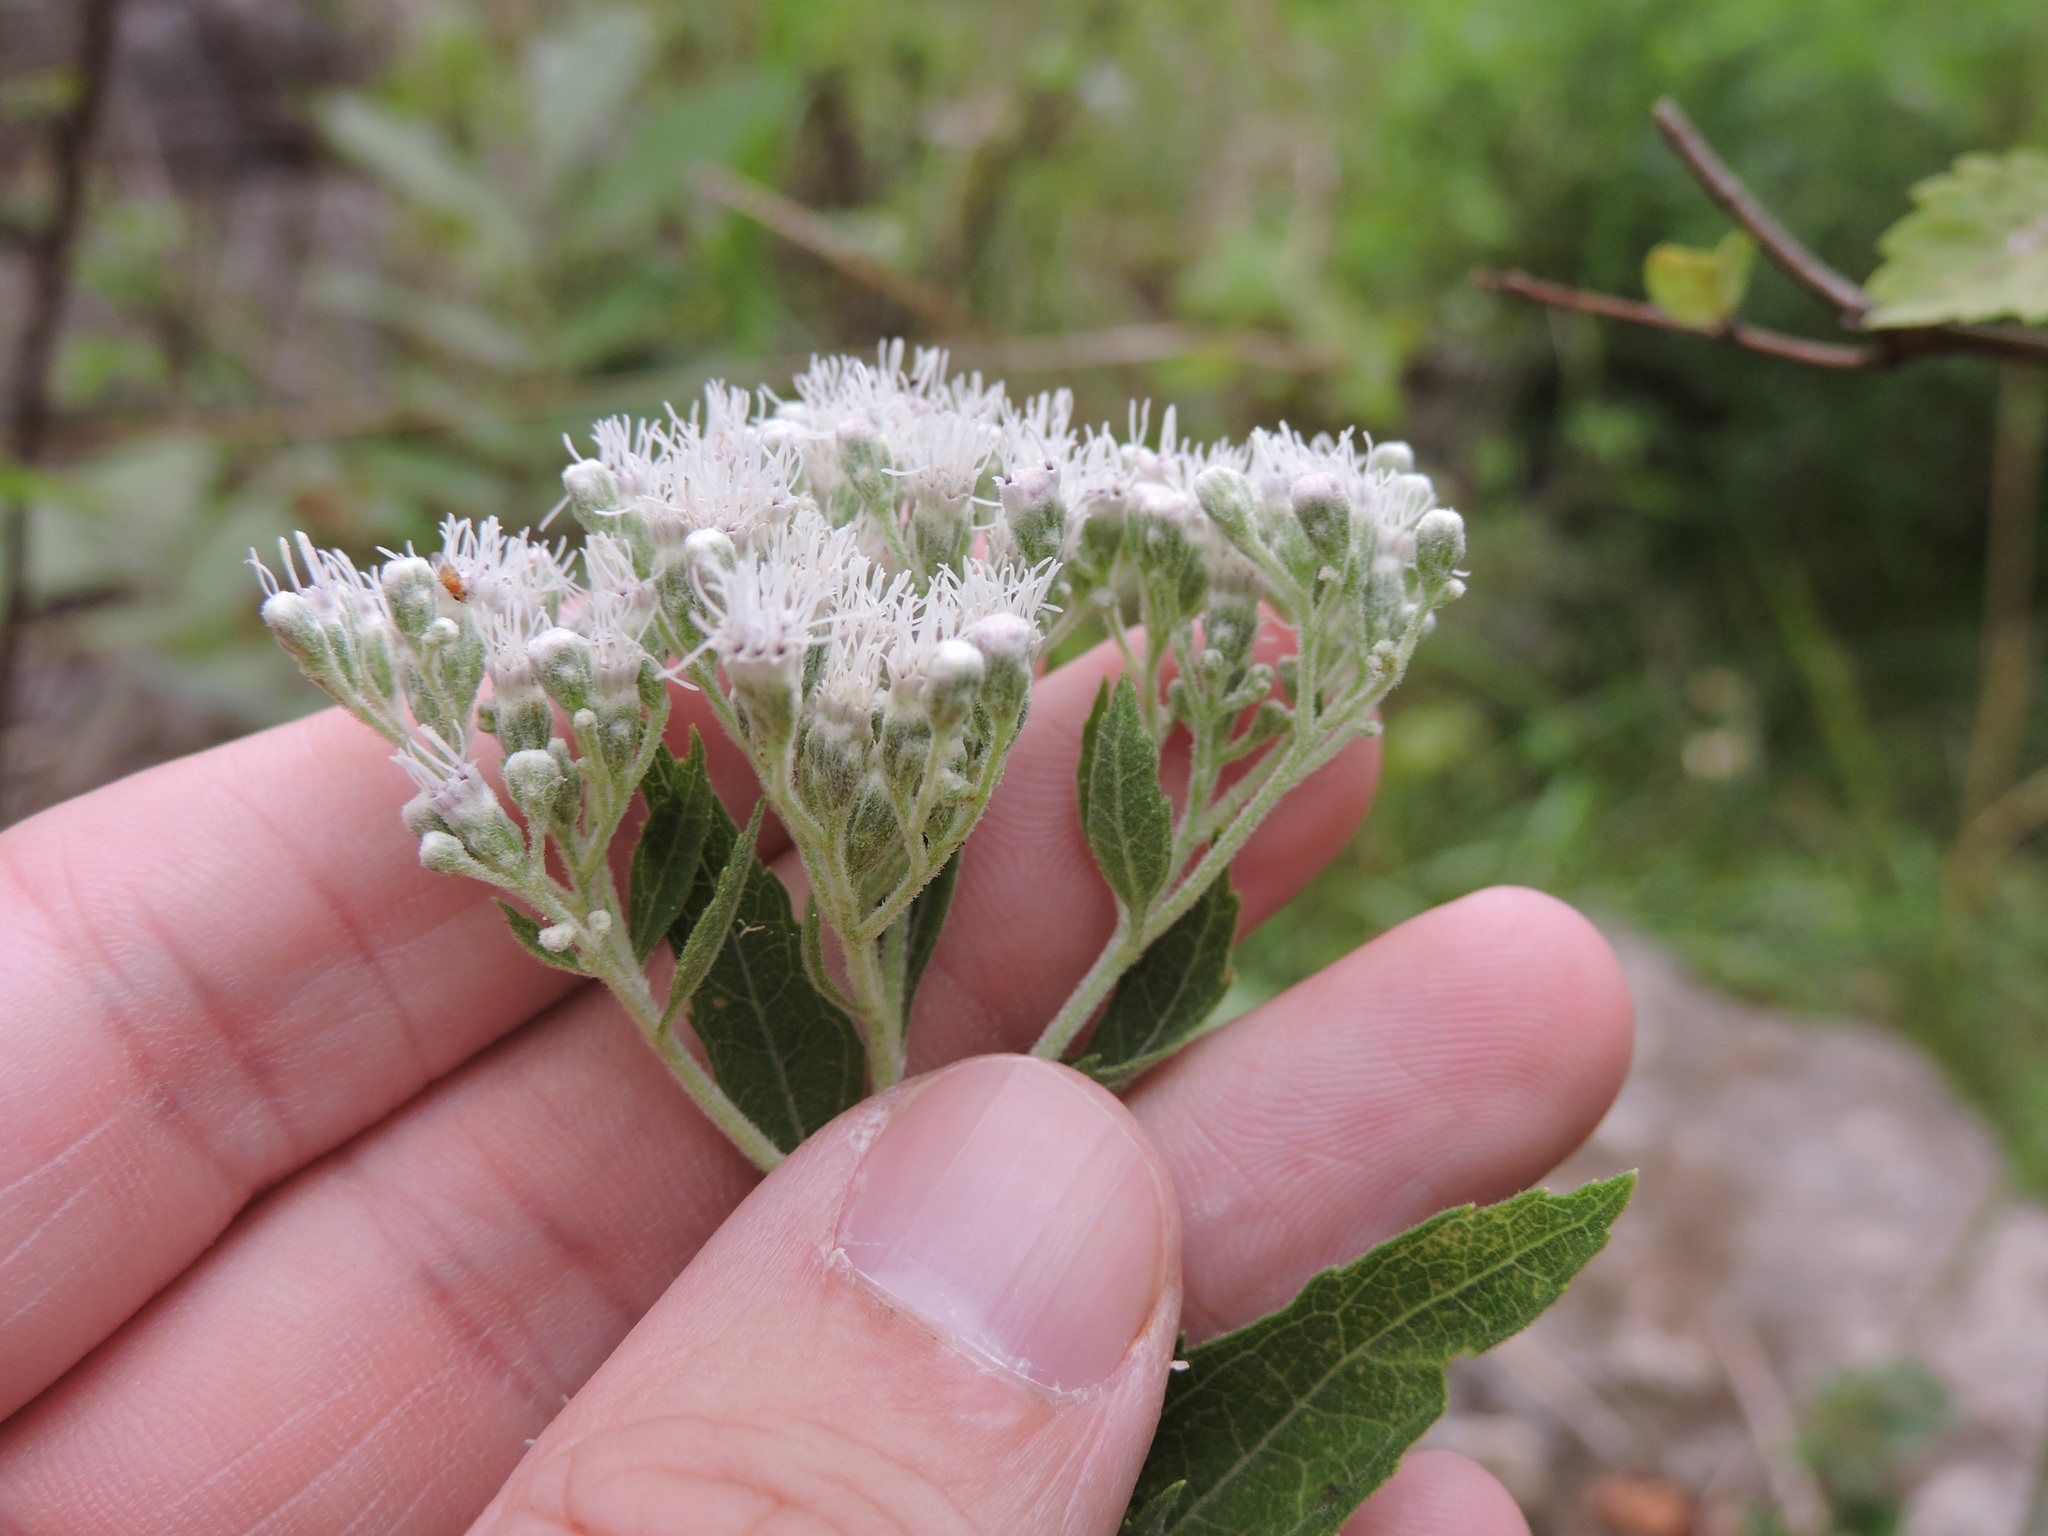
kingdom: Plantae
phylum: Tracheophyta
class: Magnoliopsida
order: Asterales
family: Asteraceae
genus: Eupatorium
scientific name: Eupatorium serotinum
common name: Late boneset
